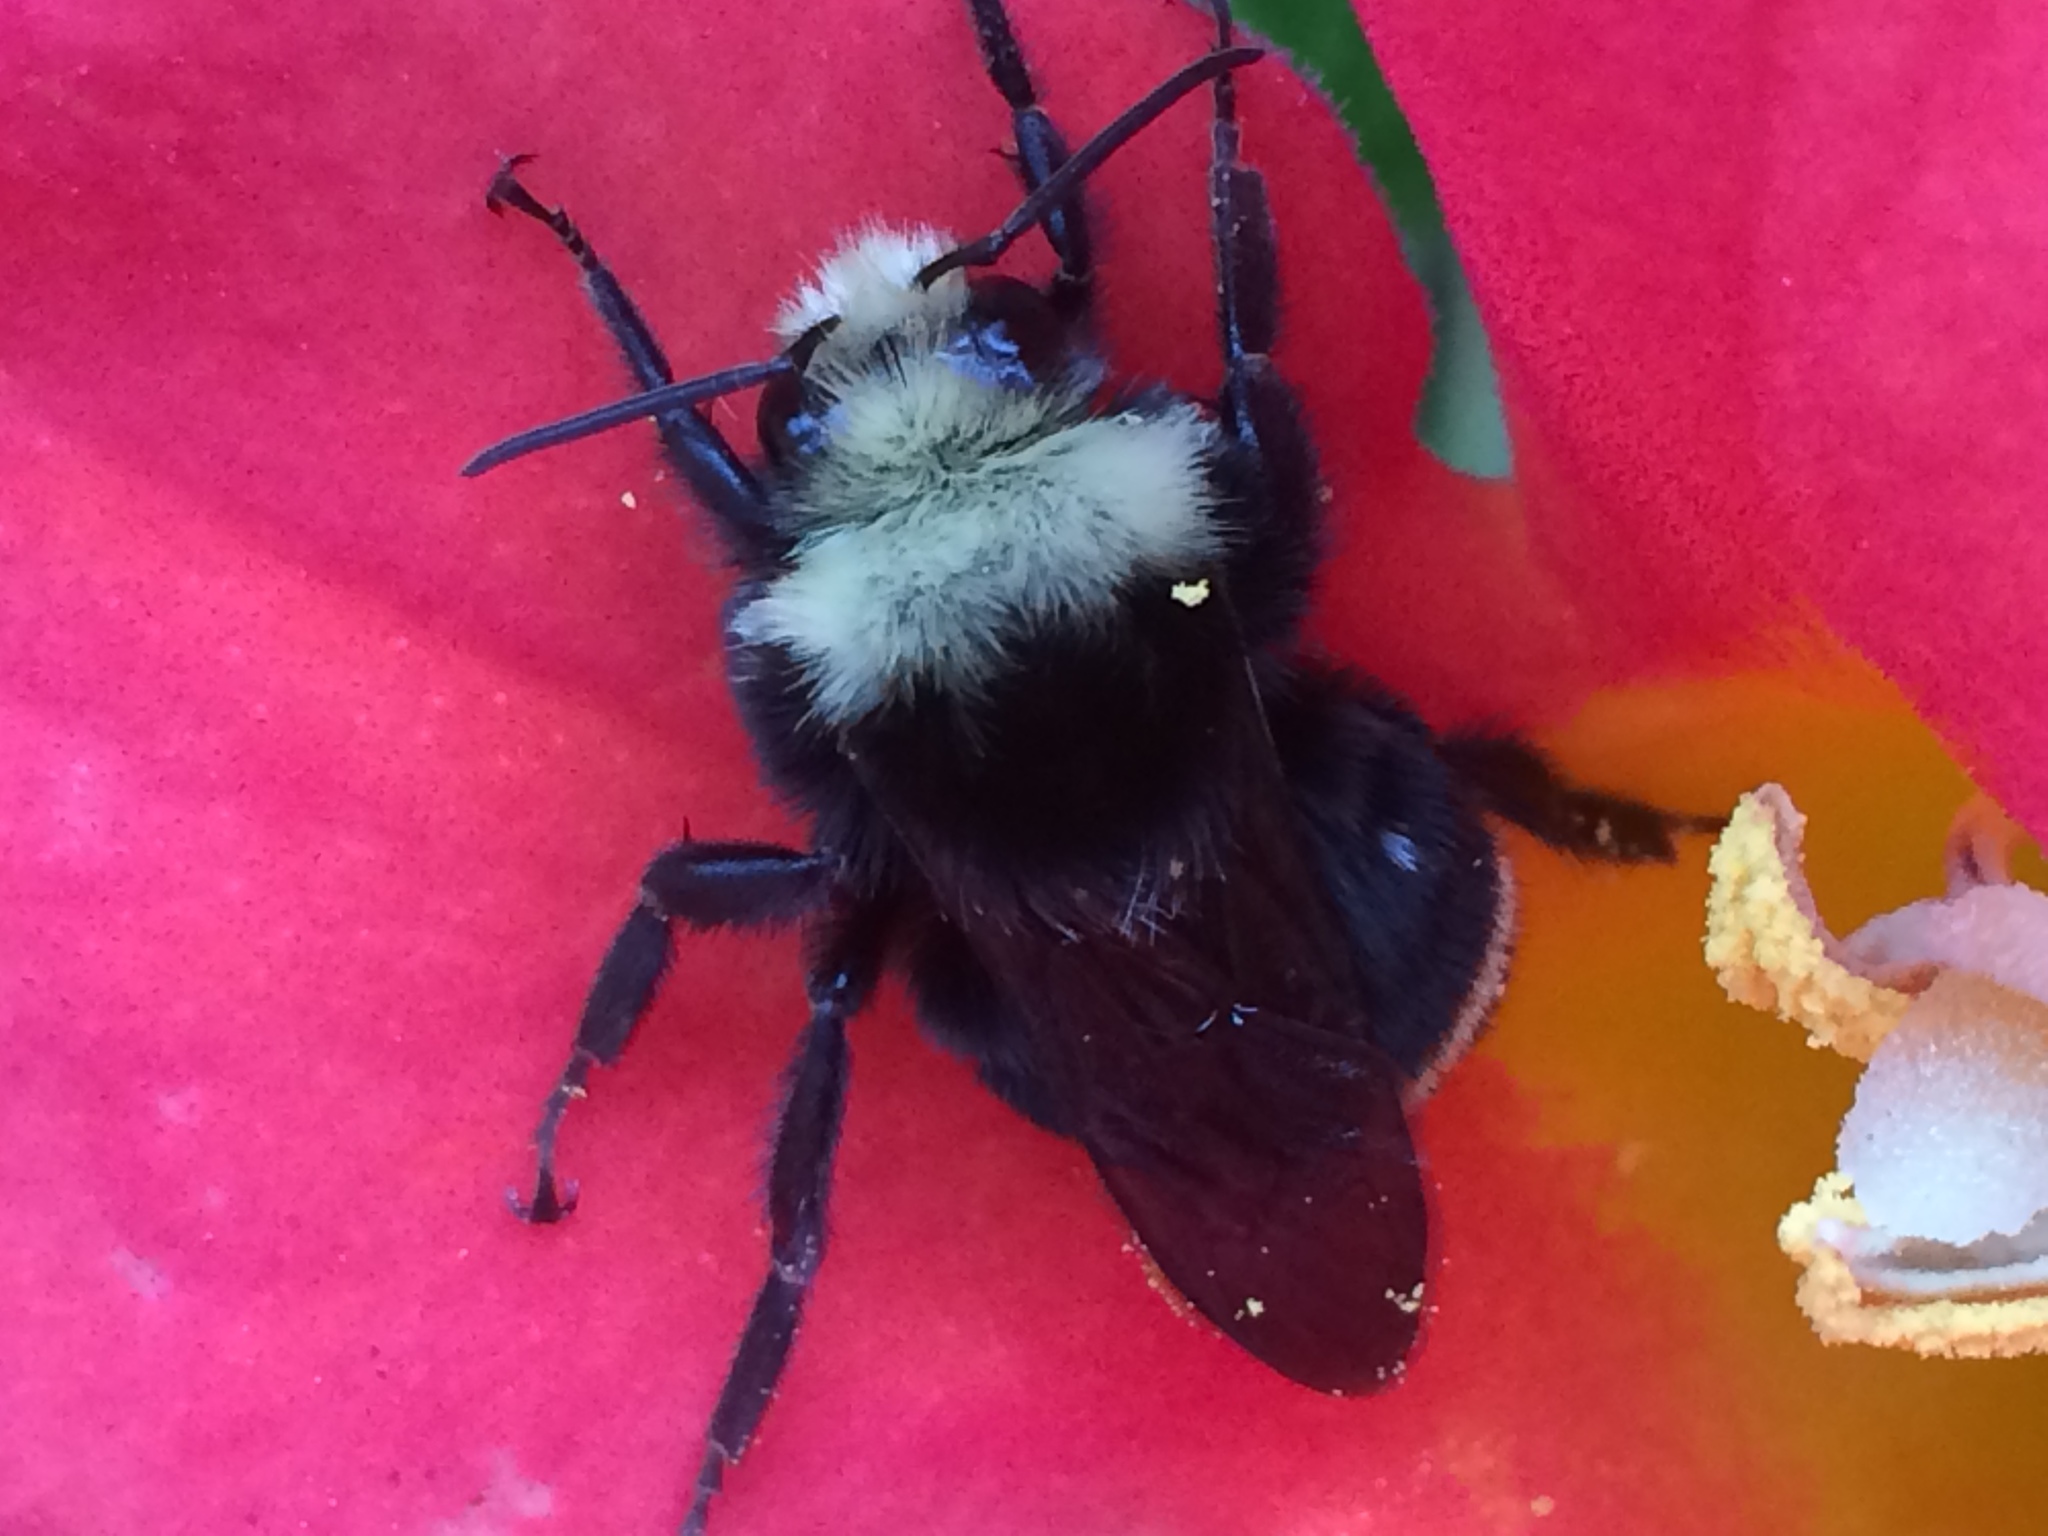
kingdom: Animalia
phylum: Arthropoda
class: Insecta
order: Hymenoptera
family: Apidae
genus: Pyrobombus
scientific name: Pyrobombus
